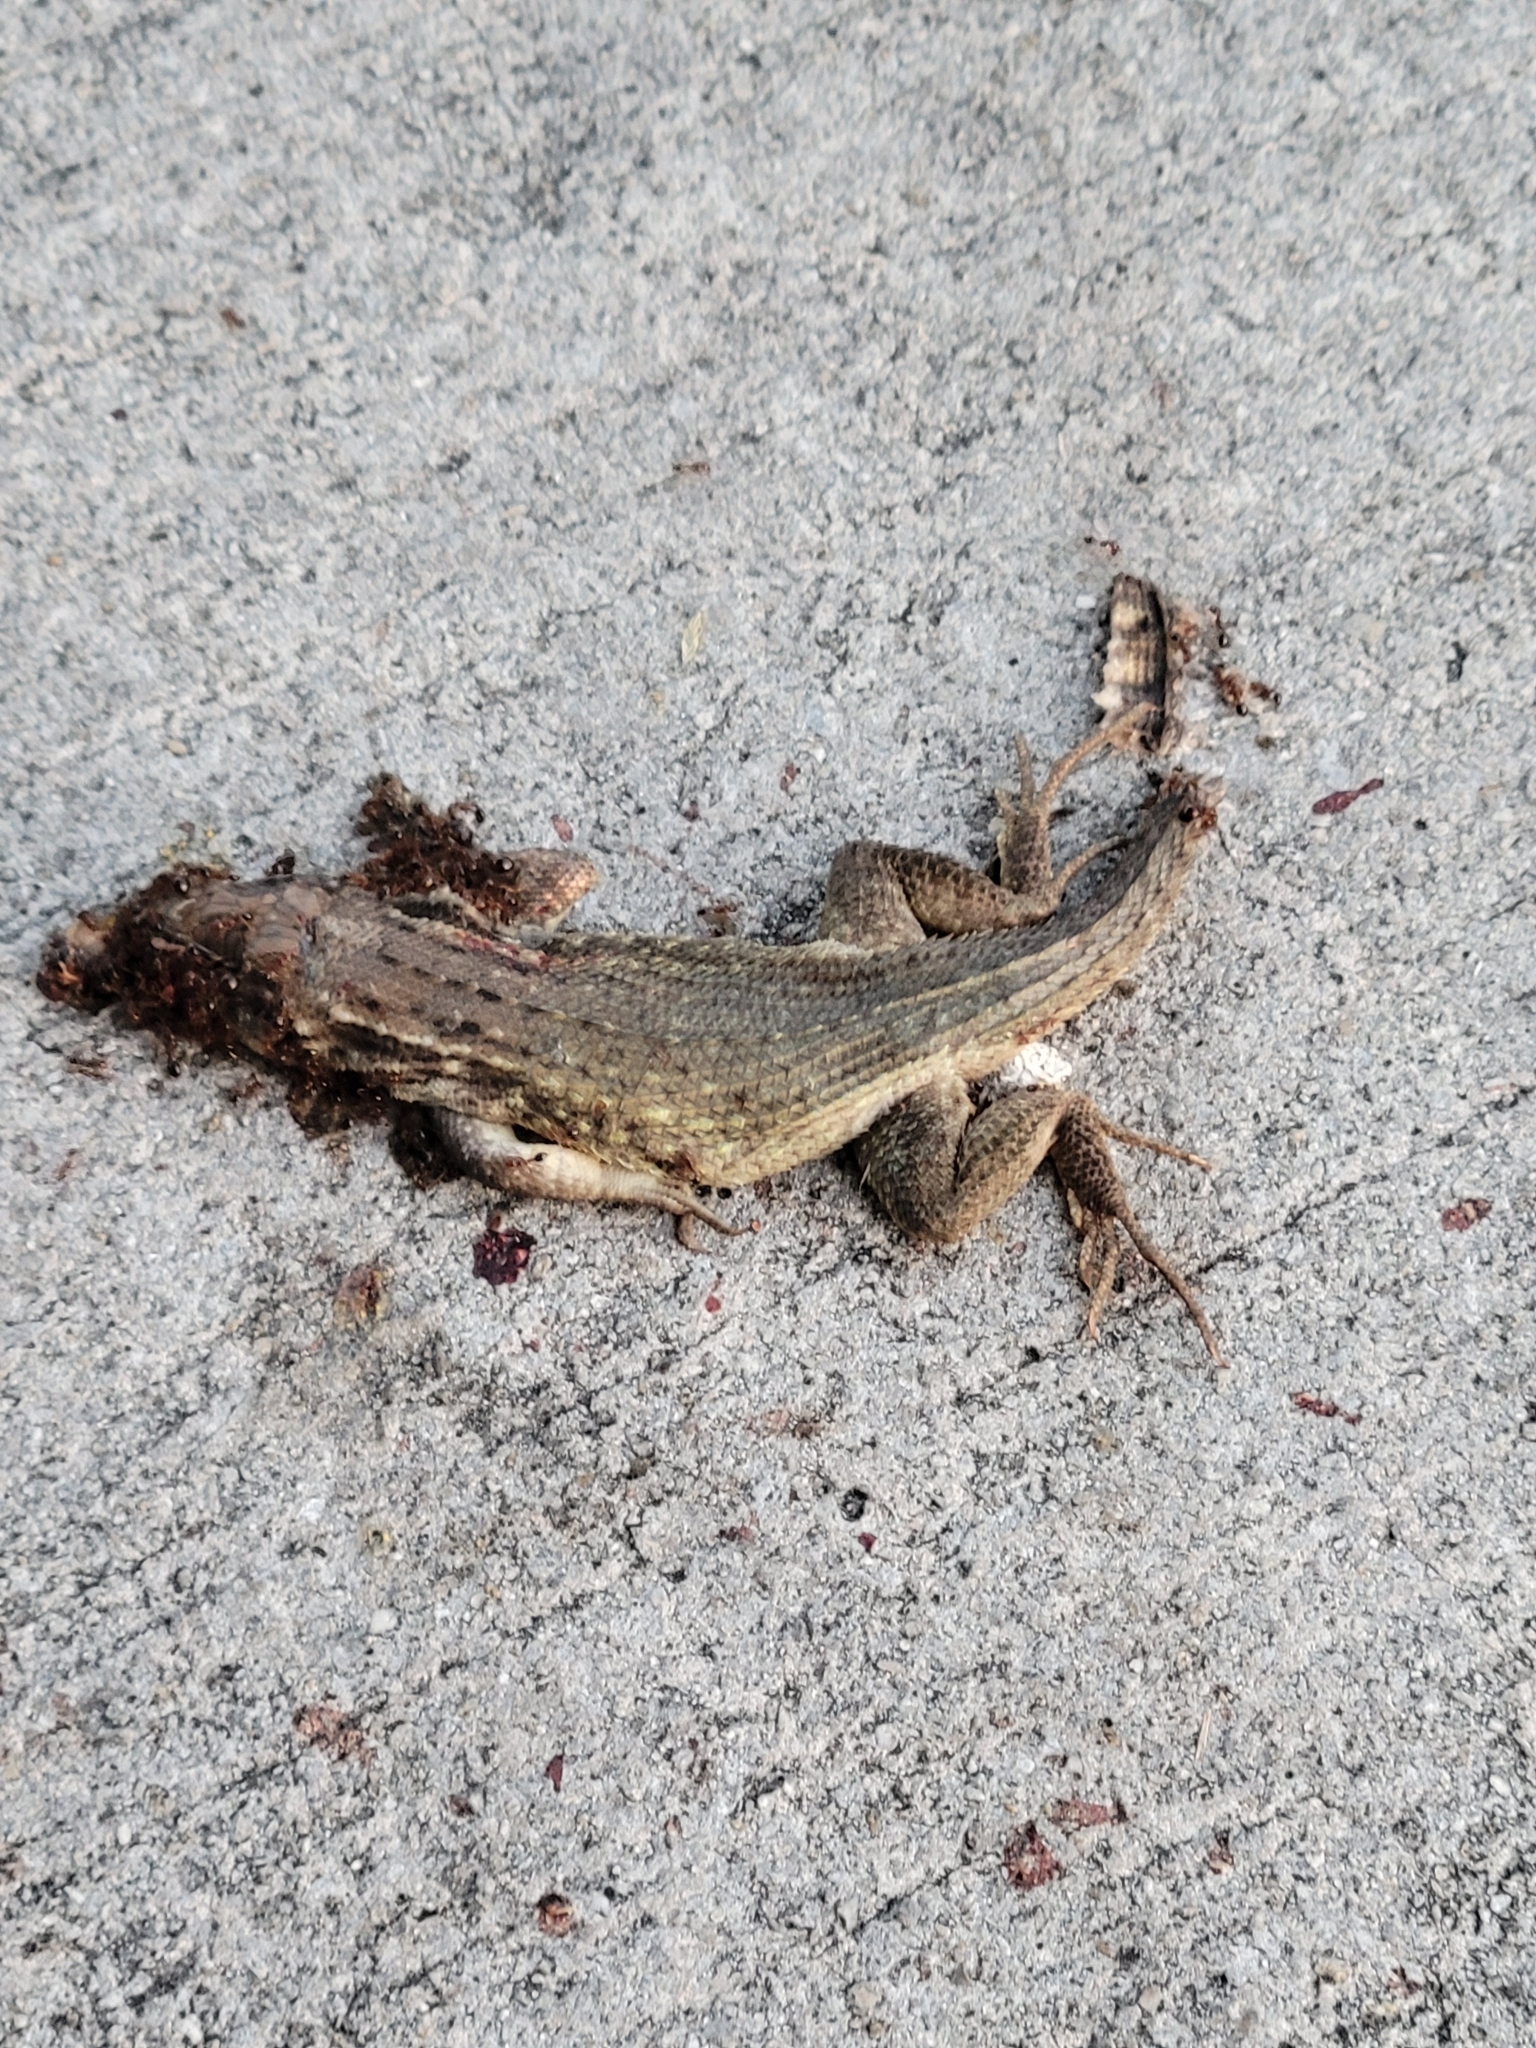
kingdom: Animalia
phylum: Chordata
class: Squamata
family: Leiocephalidae
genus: Leiocephalus
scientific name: Leiocephalus carinatus
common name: Northern curly-tailed lizard
